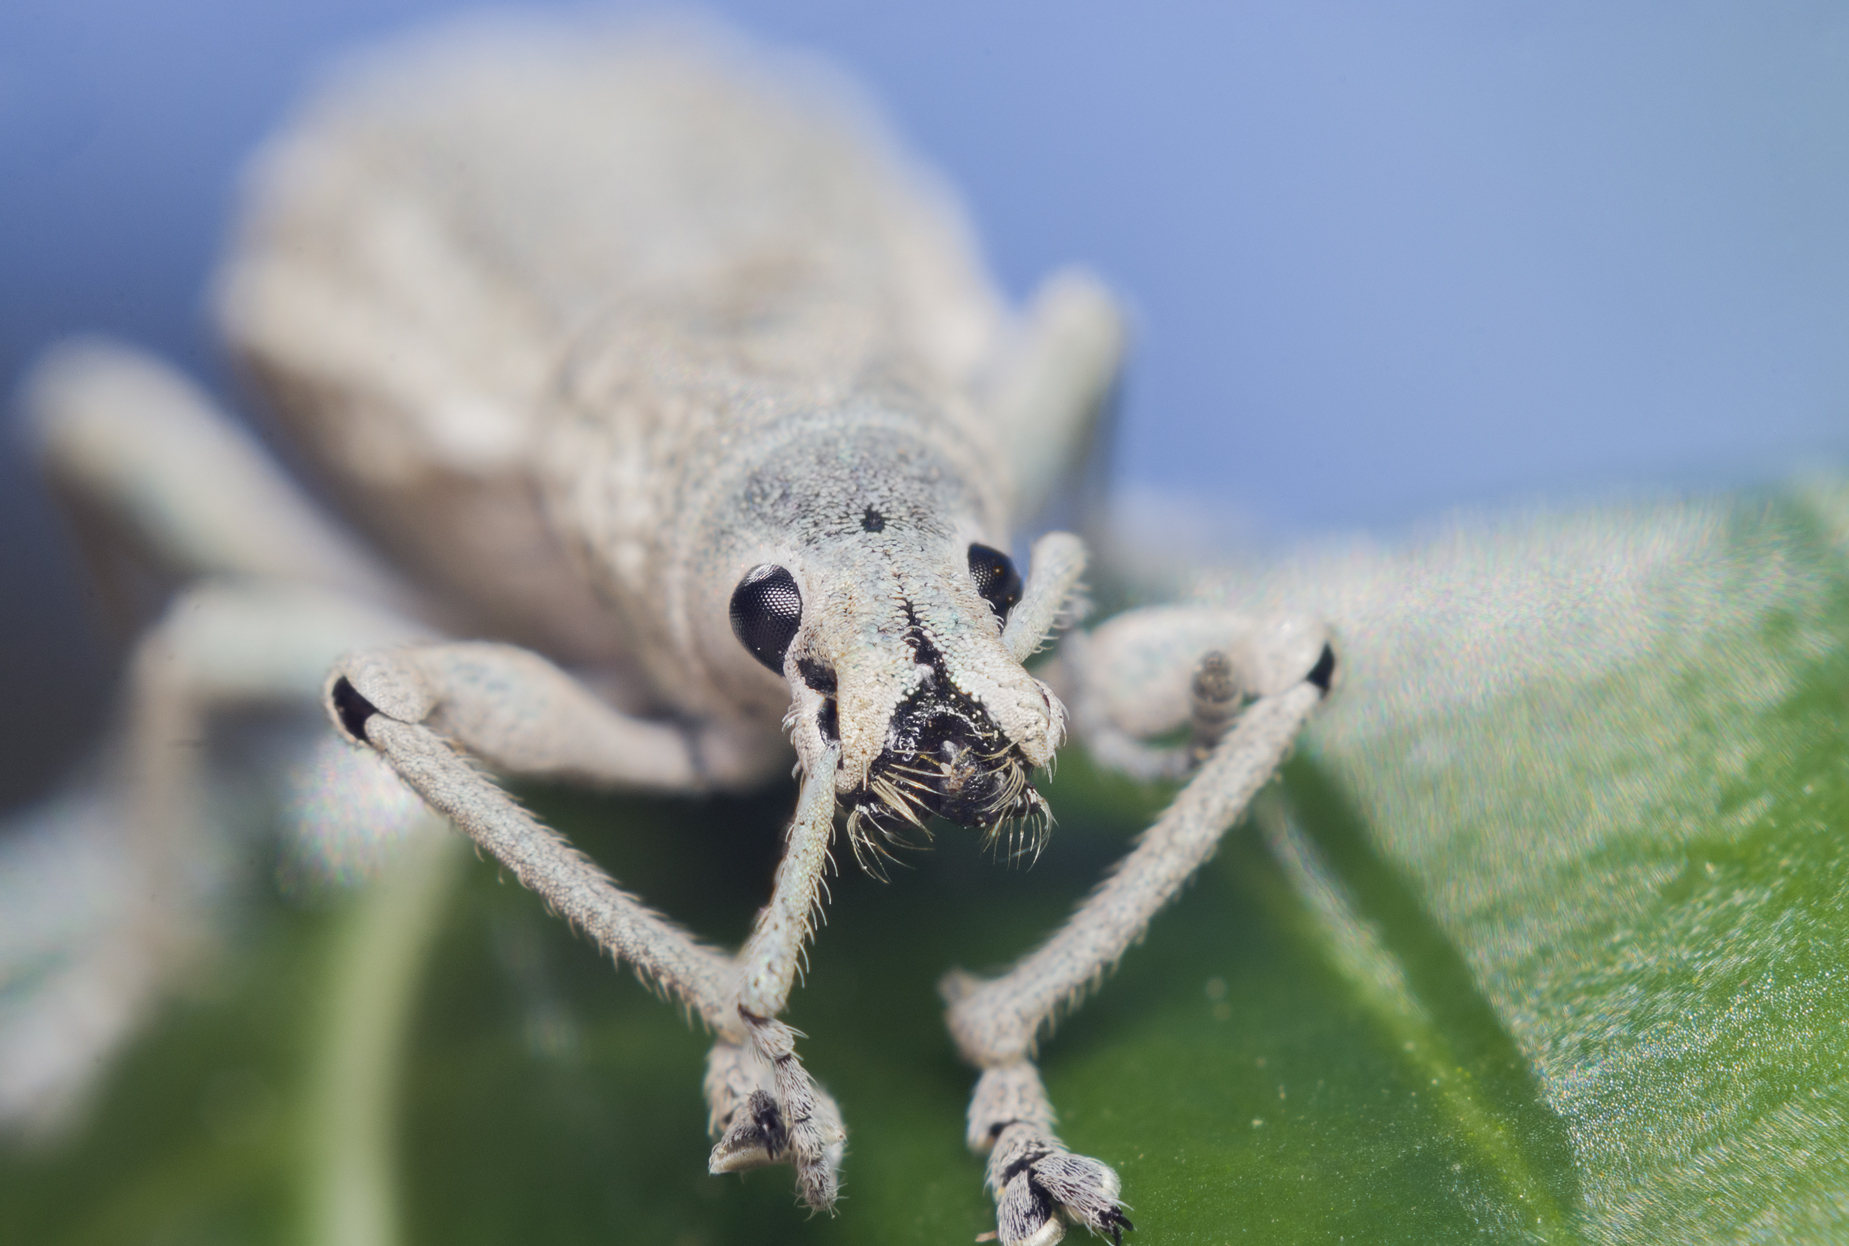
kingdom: Animalia
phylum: Arthropoda
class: Insecta
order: Coleoptera
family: Curculionidae
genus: Compsus
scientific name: Compsus canescens
